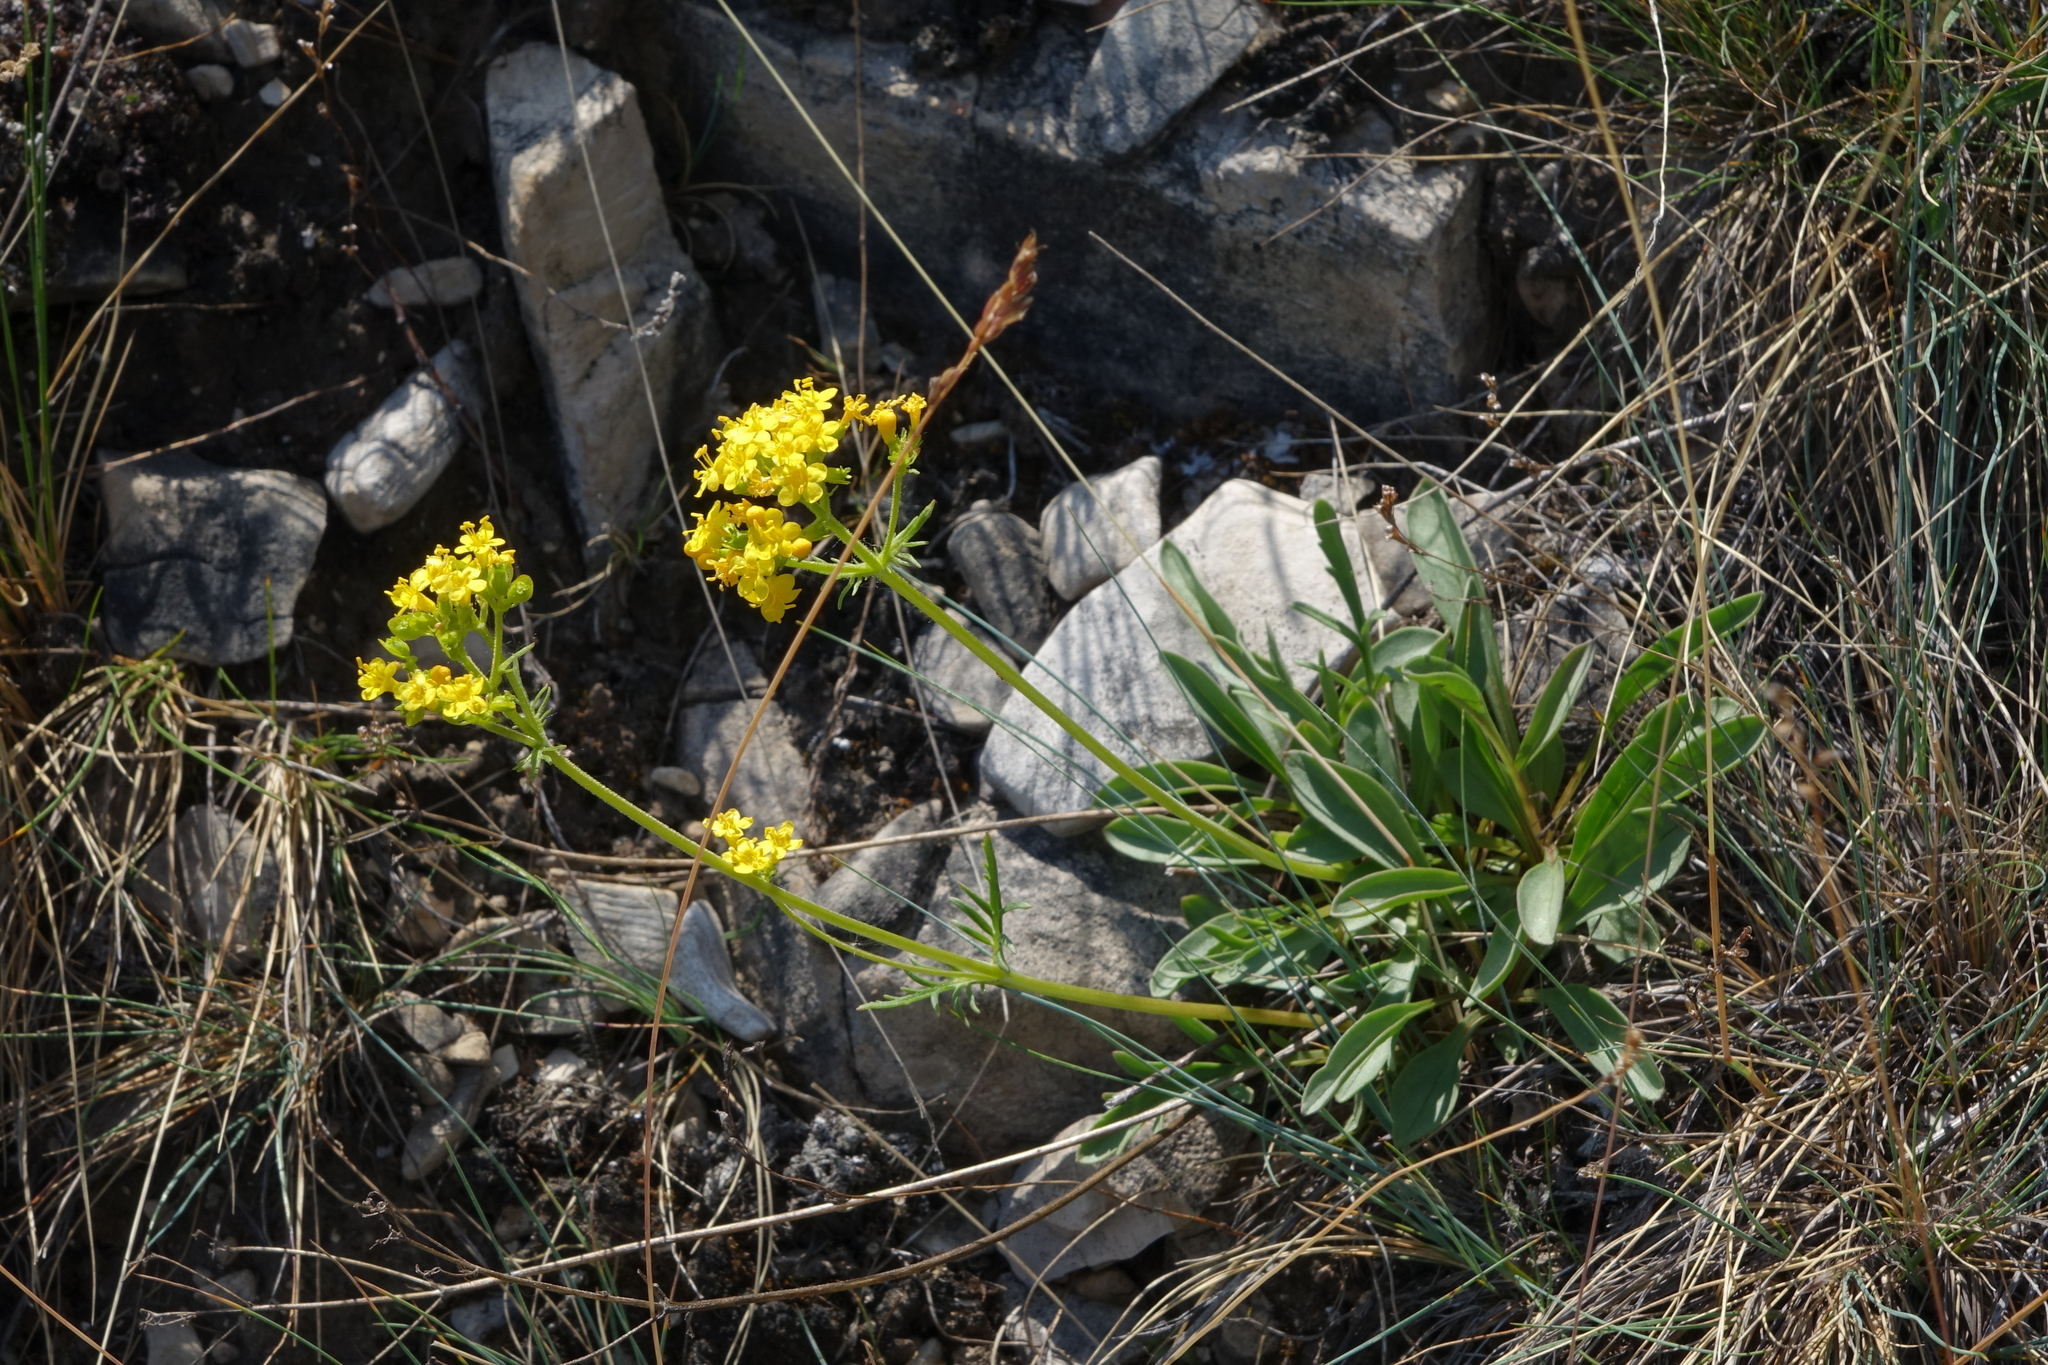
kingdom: Plantae
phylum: Tracheophyta
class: Magnoliopsida
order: Dipsacales
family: Caprifoliaceae
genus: Patrinia
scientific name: Patrinia sibirica
